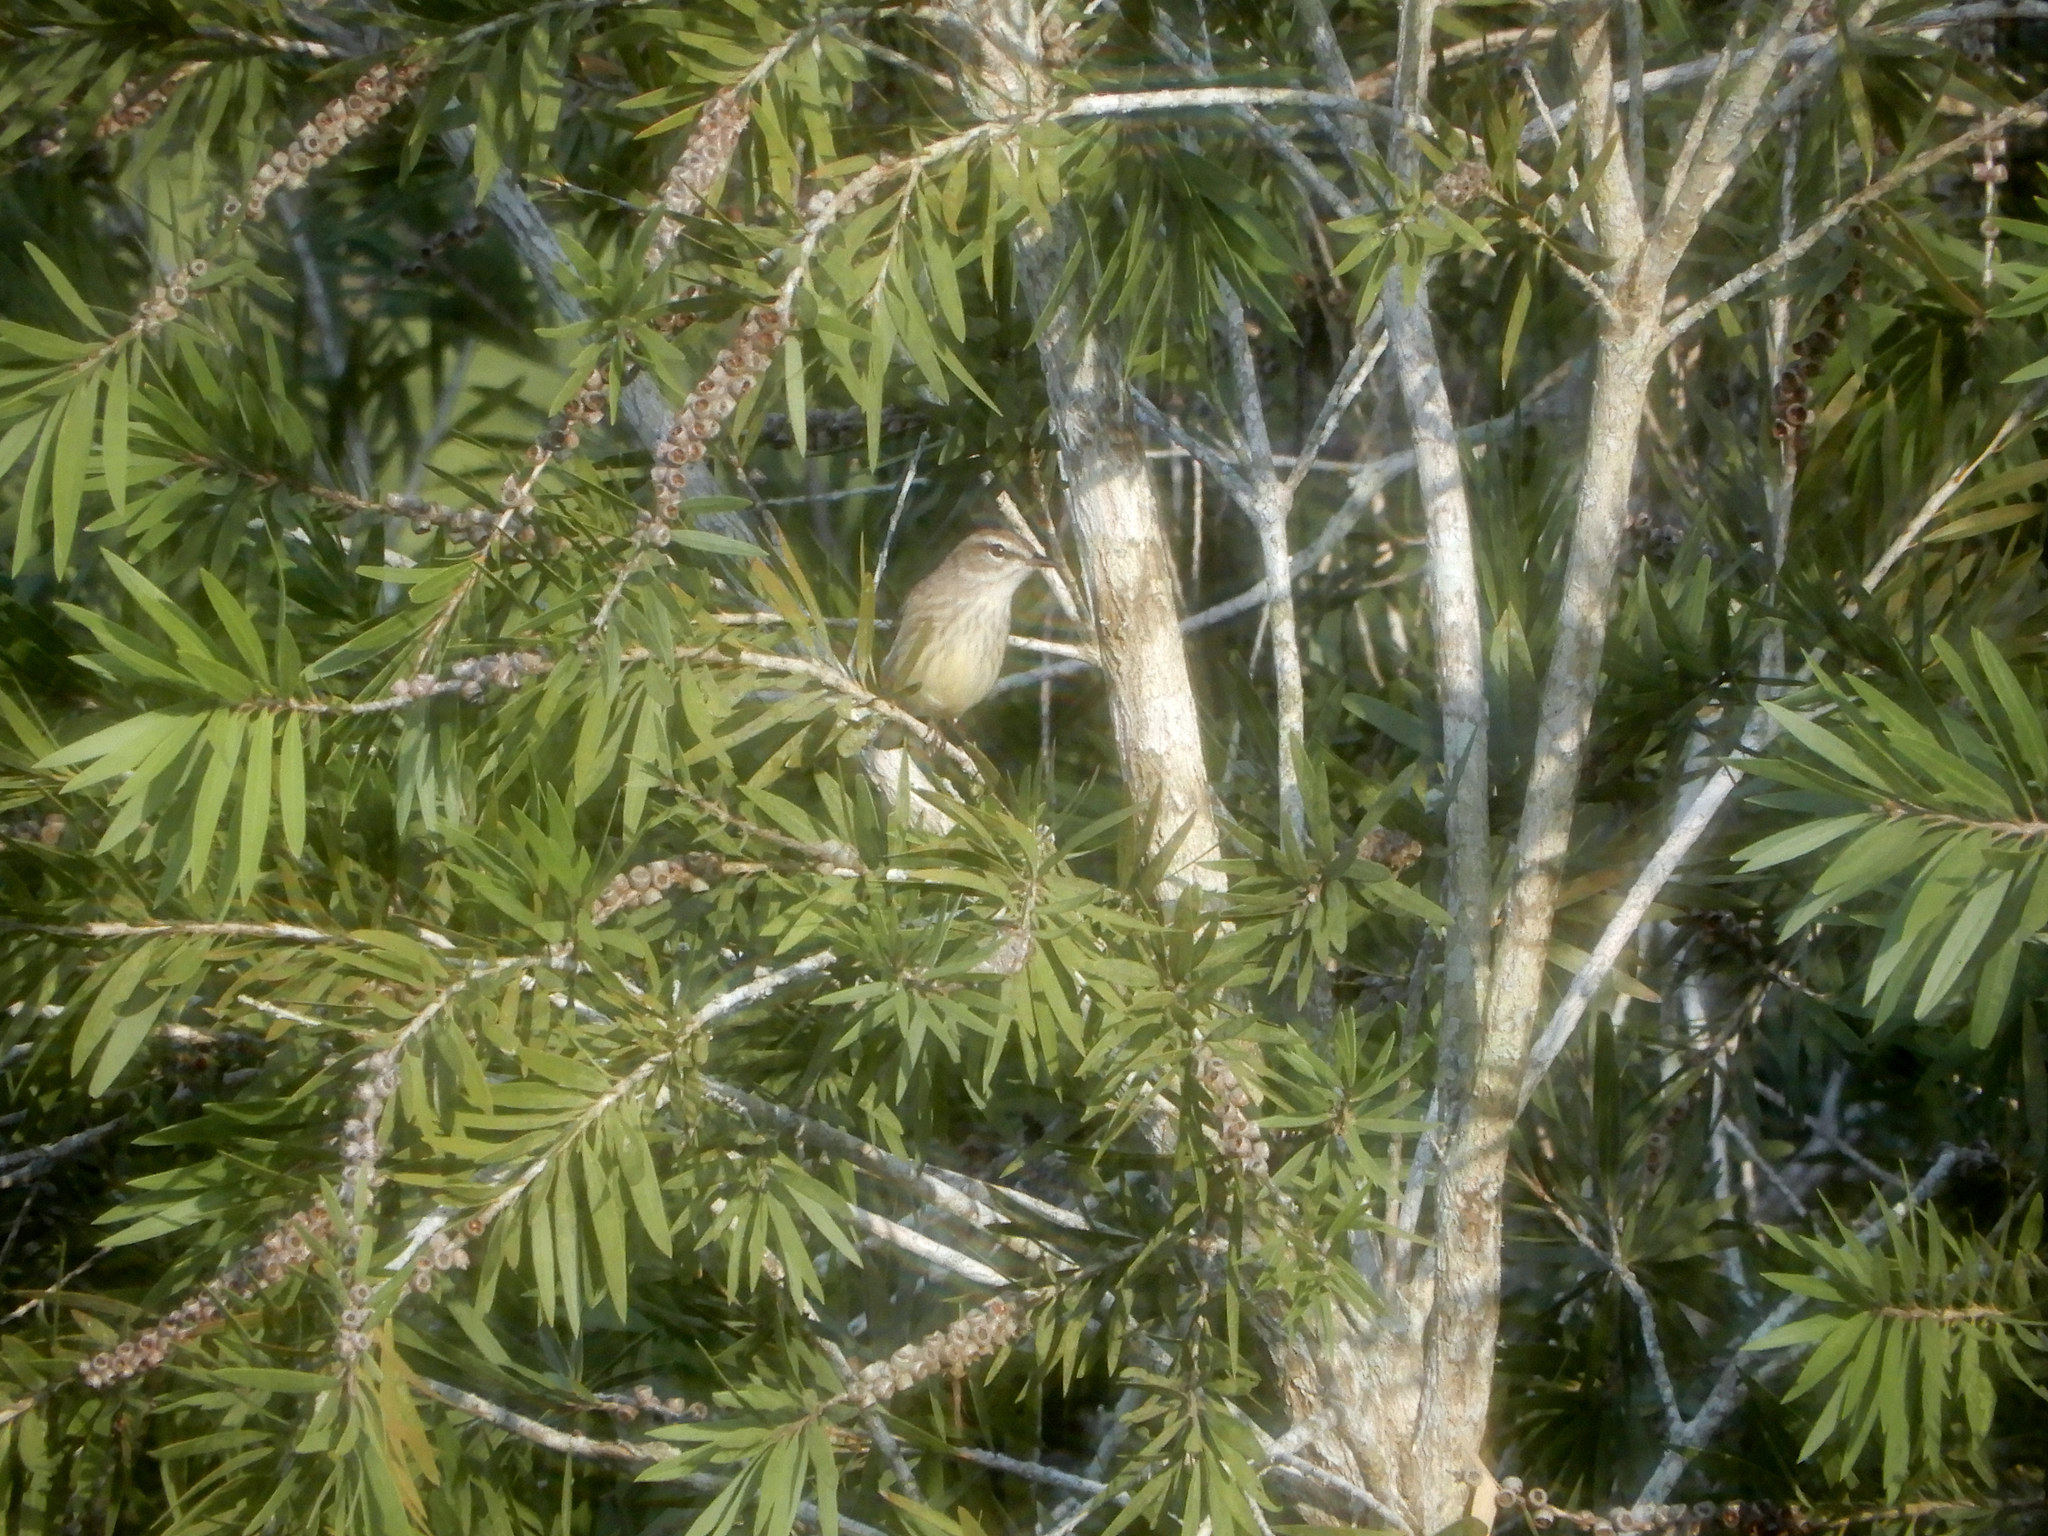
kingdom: Animalia
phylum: Chordata
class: Aves
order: Passeriformes
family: Parulidae
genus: Setophaga
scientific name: Setophaga palmarum
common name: Palm warbler
